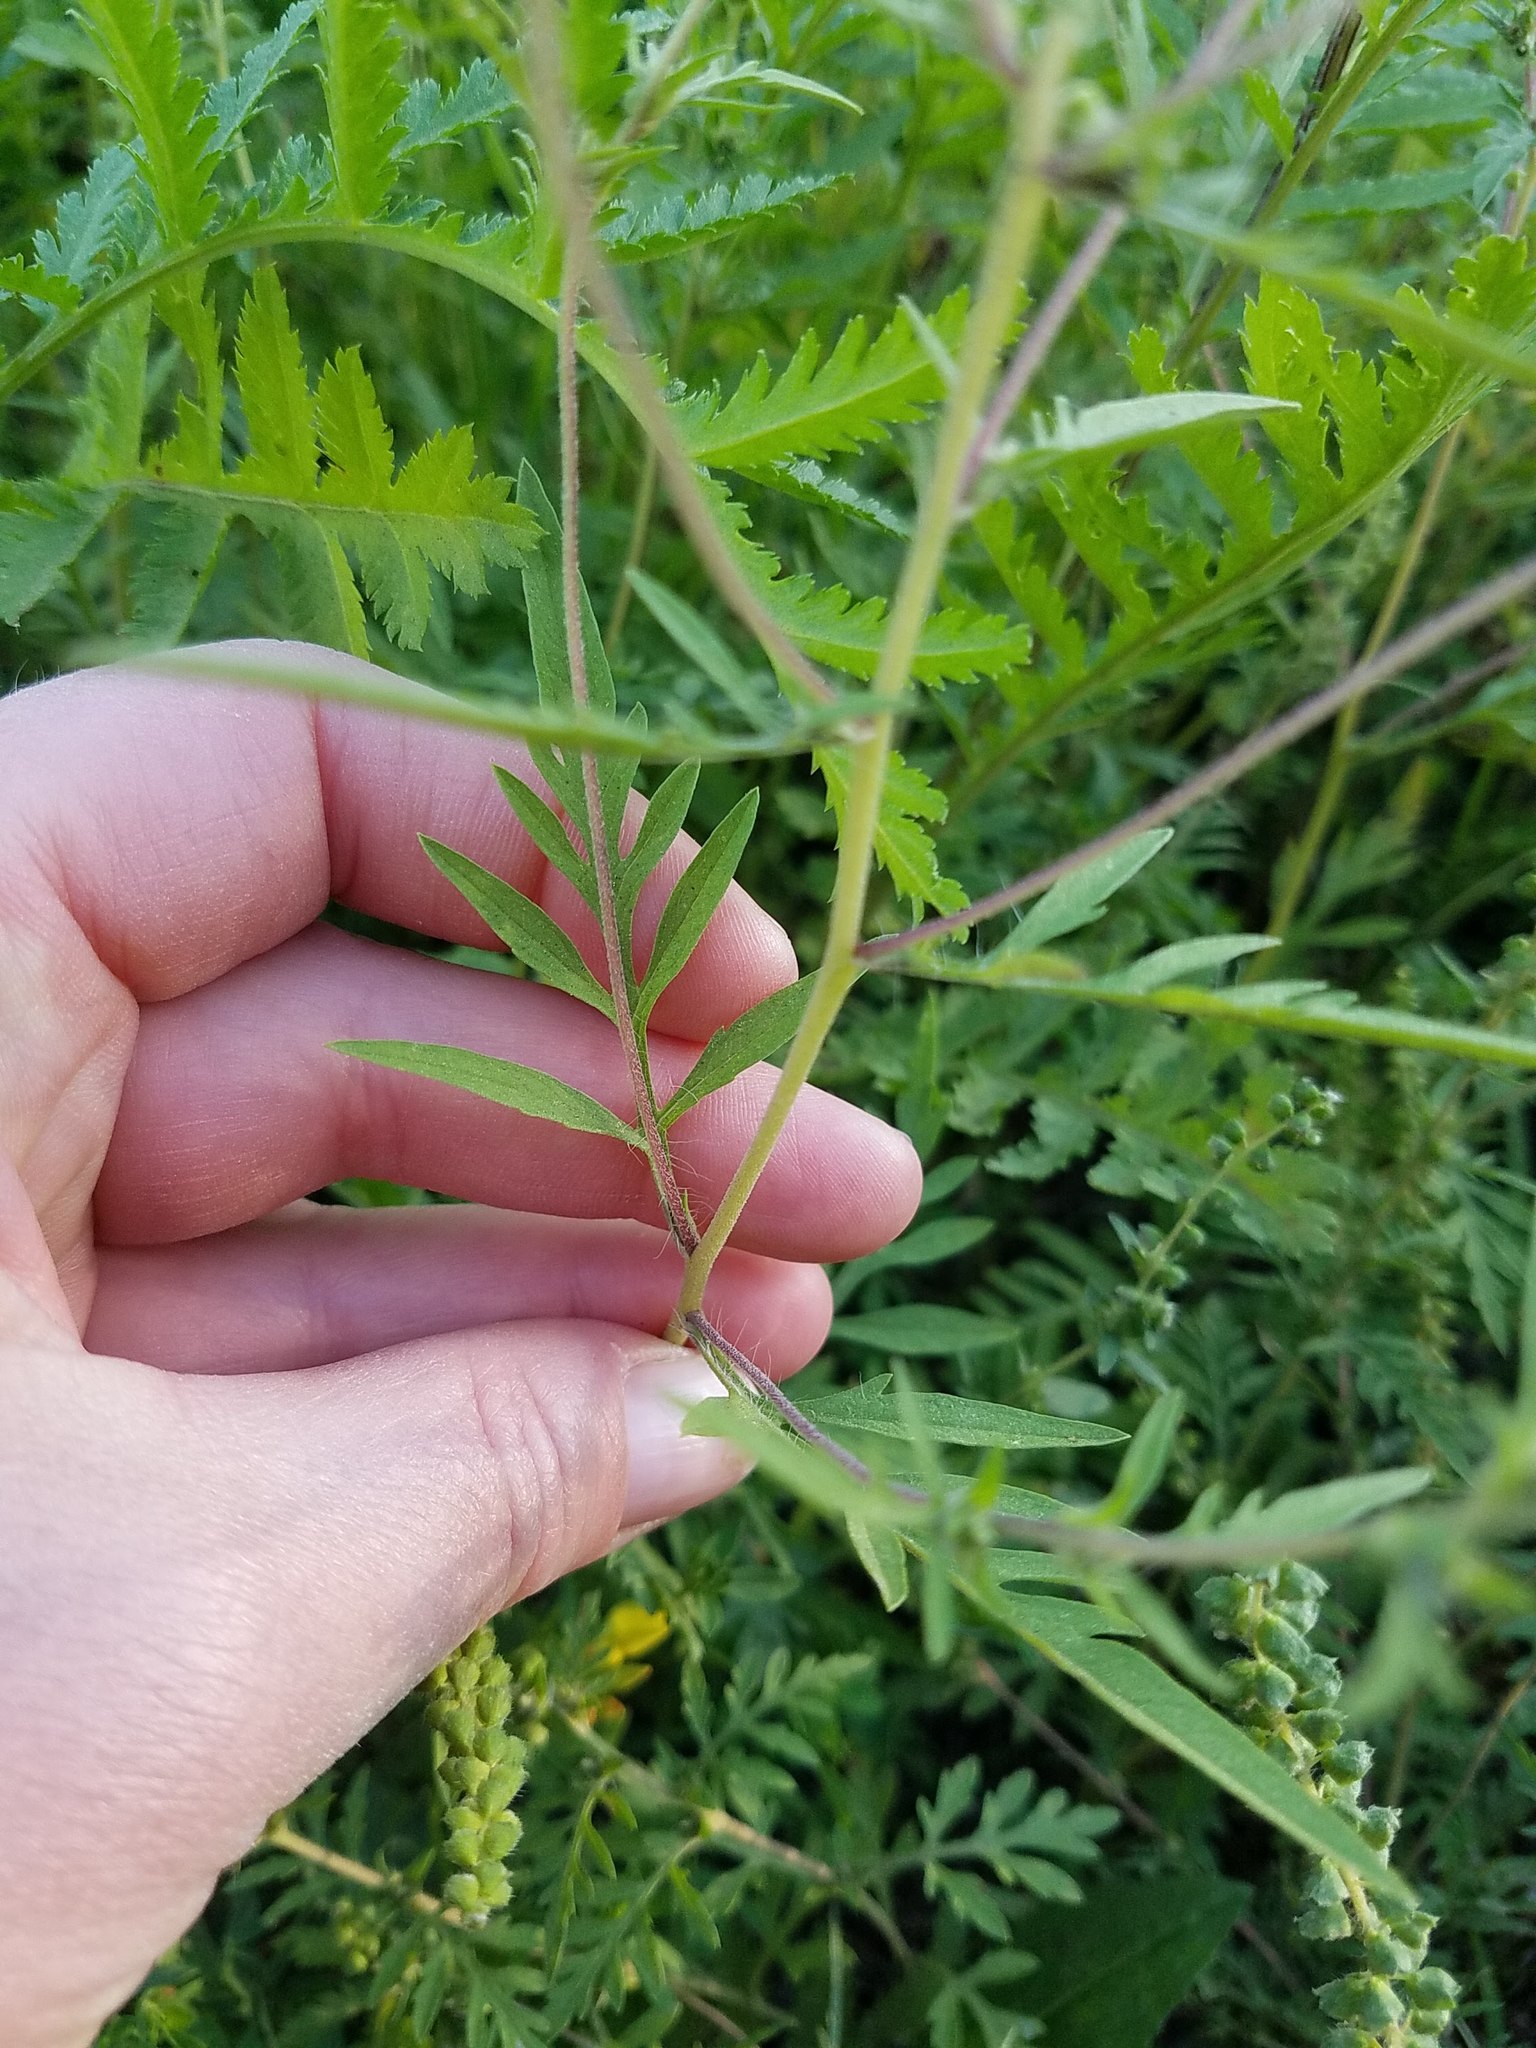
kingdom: Plantae
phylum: Tracheophyta
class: Magnoliopsida
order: Asterales
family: Asteraceae
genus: Ambrosia
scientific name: Ambrosia artemisiifolia
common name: Annual ragweed
